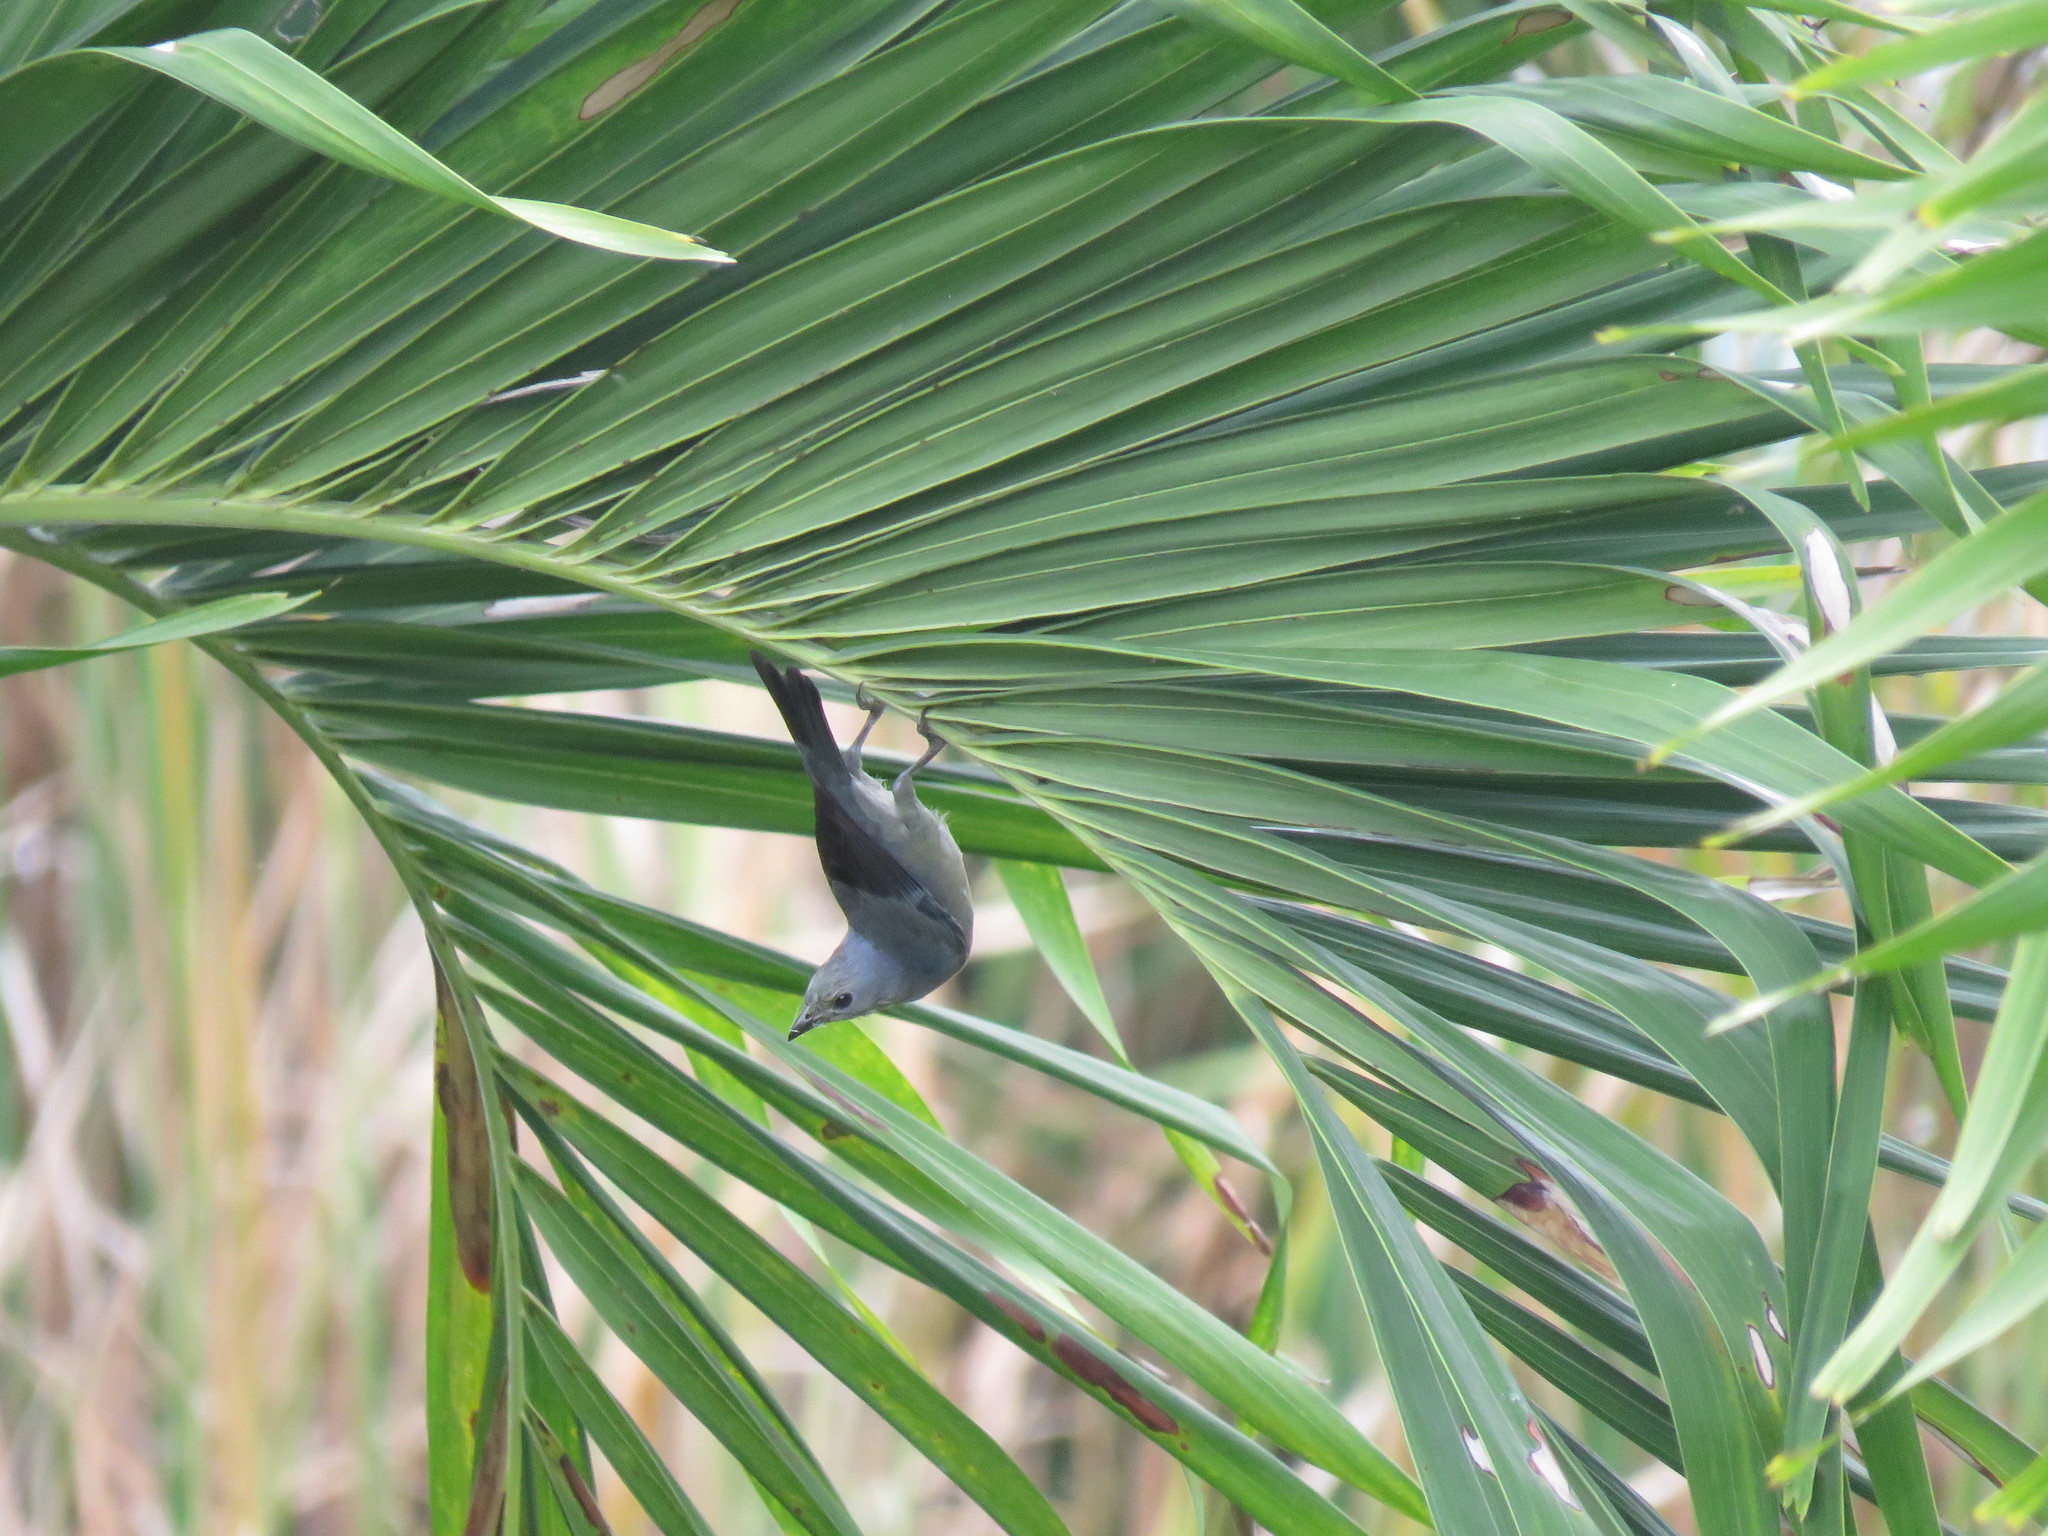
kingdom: Animalia
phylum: Chordata
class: Aves
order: Passeriformes
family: Thraupidae
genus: Thraupis
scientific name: Thraupis palmarum
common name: Palm tanager
